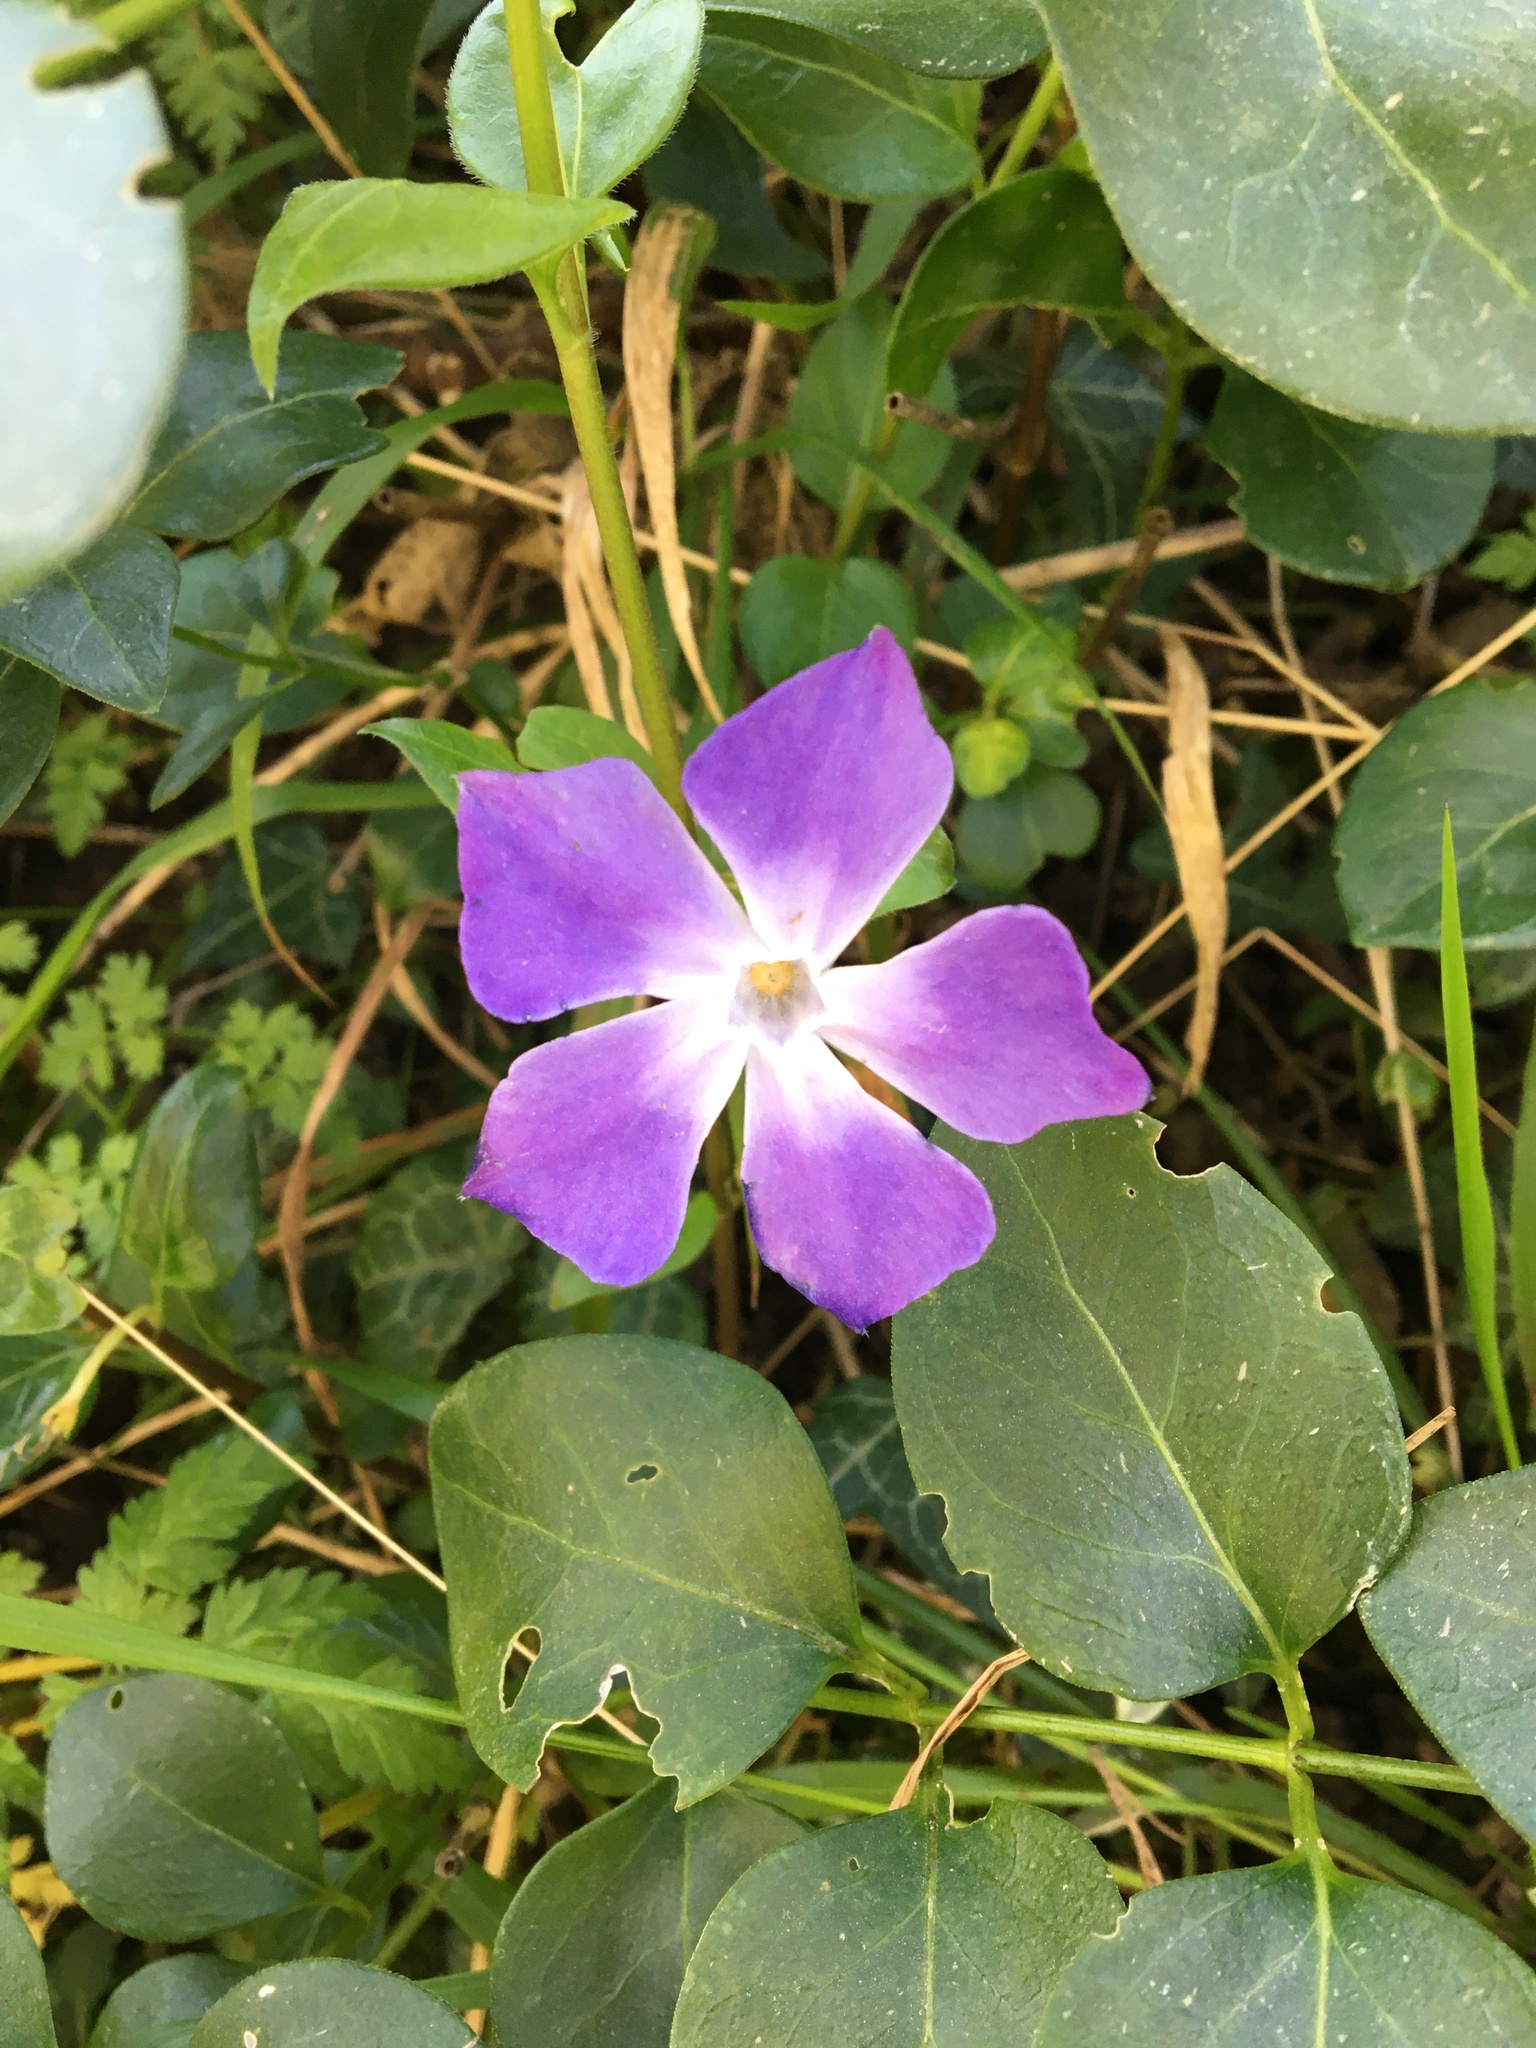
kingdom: Plantae
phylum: Tracheophyta
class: Magnoliopsida
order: Gentianales
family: Apocynaceae
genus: Vinca
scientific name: Vinca major
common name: Greater periwinkle
